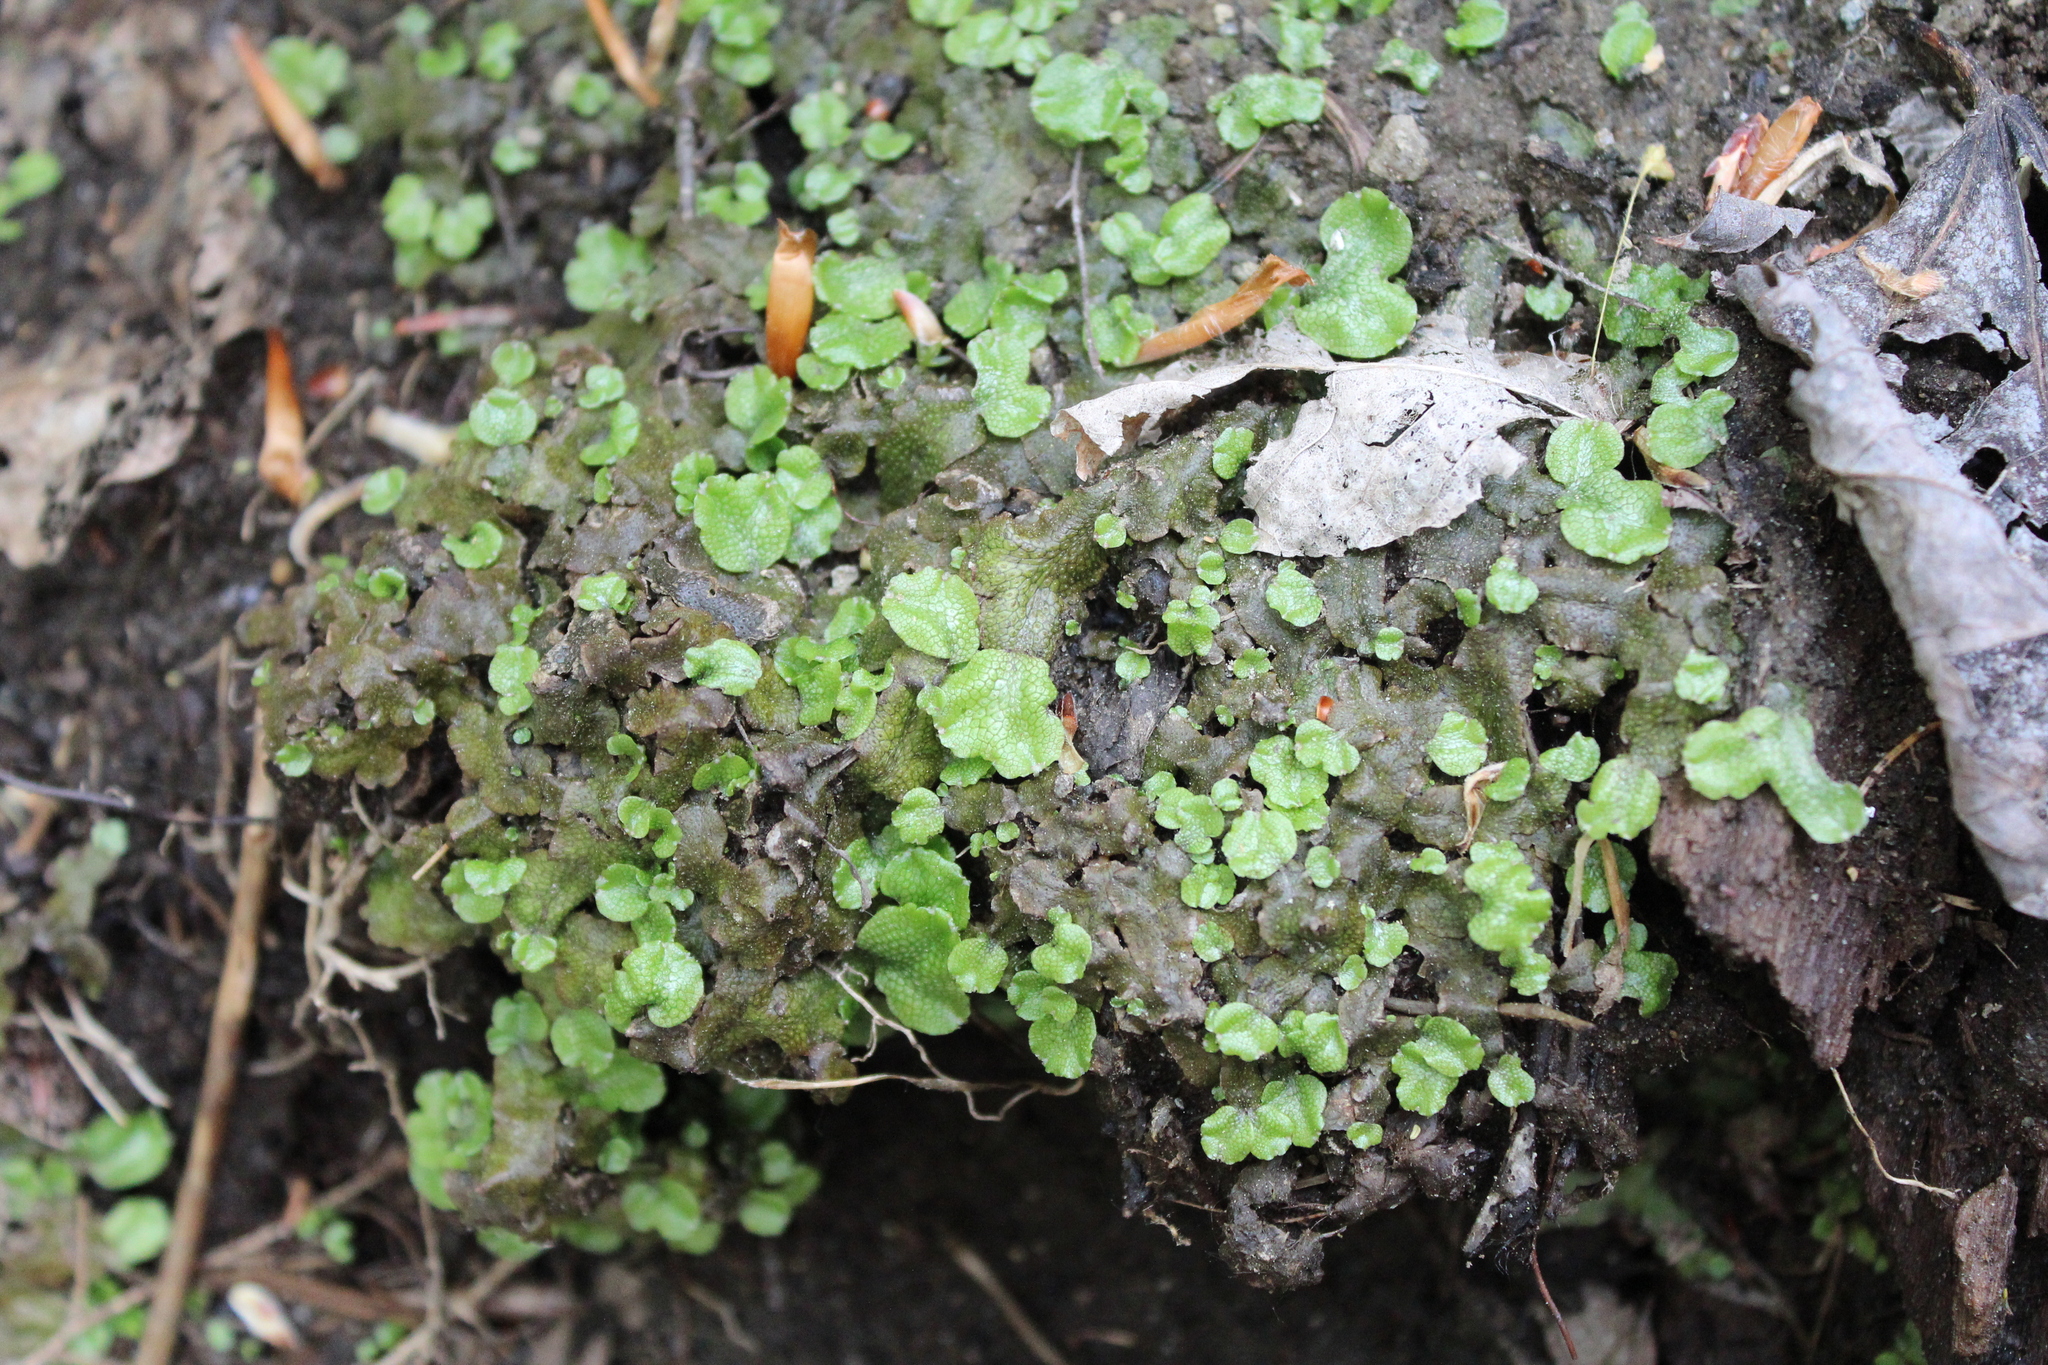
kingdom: Plantae
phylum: Marchantiophyta
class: Marchantiopsida
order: Marchantiales
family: Conocephalaceae
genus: Conocephalum
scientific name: Conocephalum salebrosum
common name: Cat-tongue liverwort
